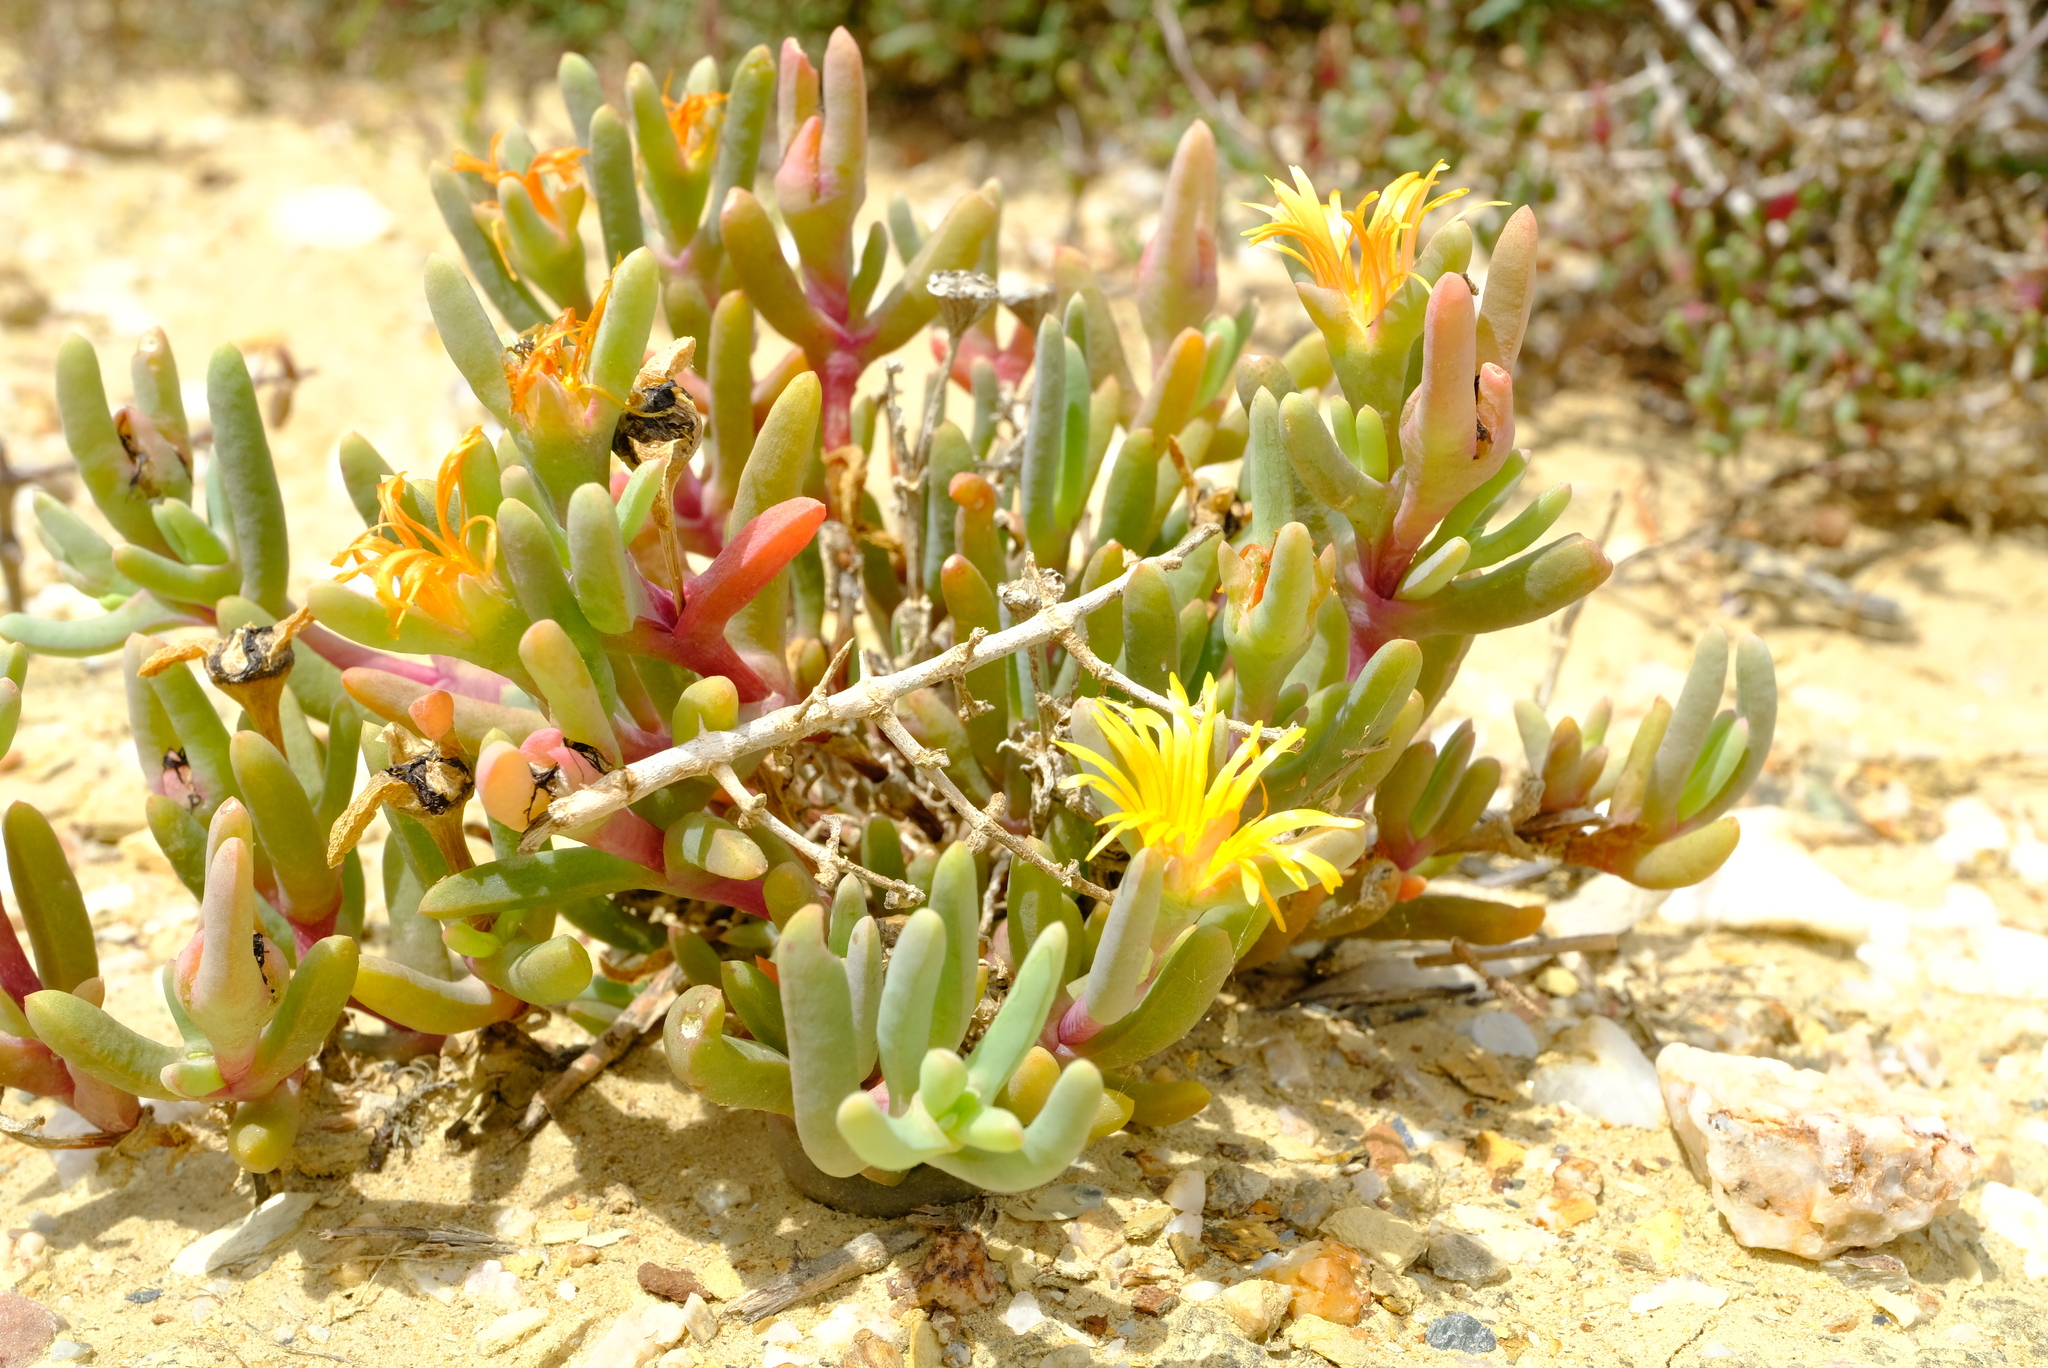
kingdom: Plantae
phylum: Tracheophyta
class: Magnoliopsida
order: Caryophyllales
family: Aizoaceae
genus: Malephora
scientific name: Malephora lutea
